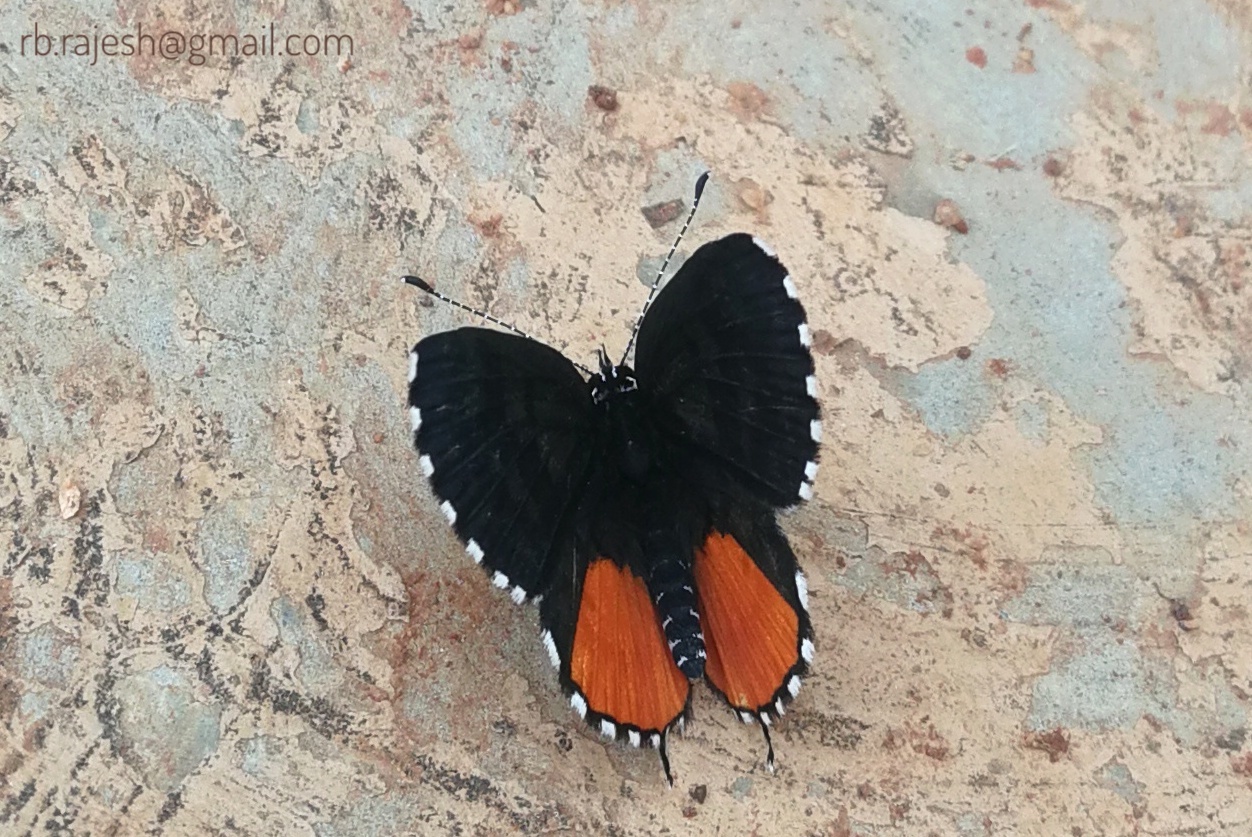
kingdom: Animalia
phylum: Arthropoda
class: Insecta
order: Lepidoptera
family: Lycaenidae
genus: Talicada
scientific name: Talicada nyseus
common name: Red pierrot
